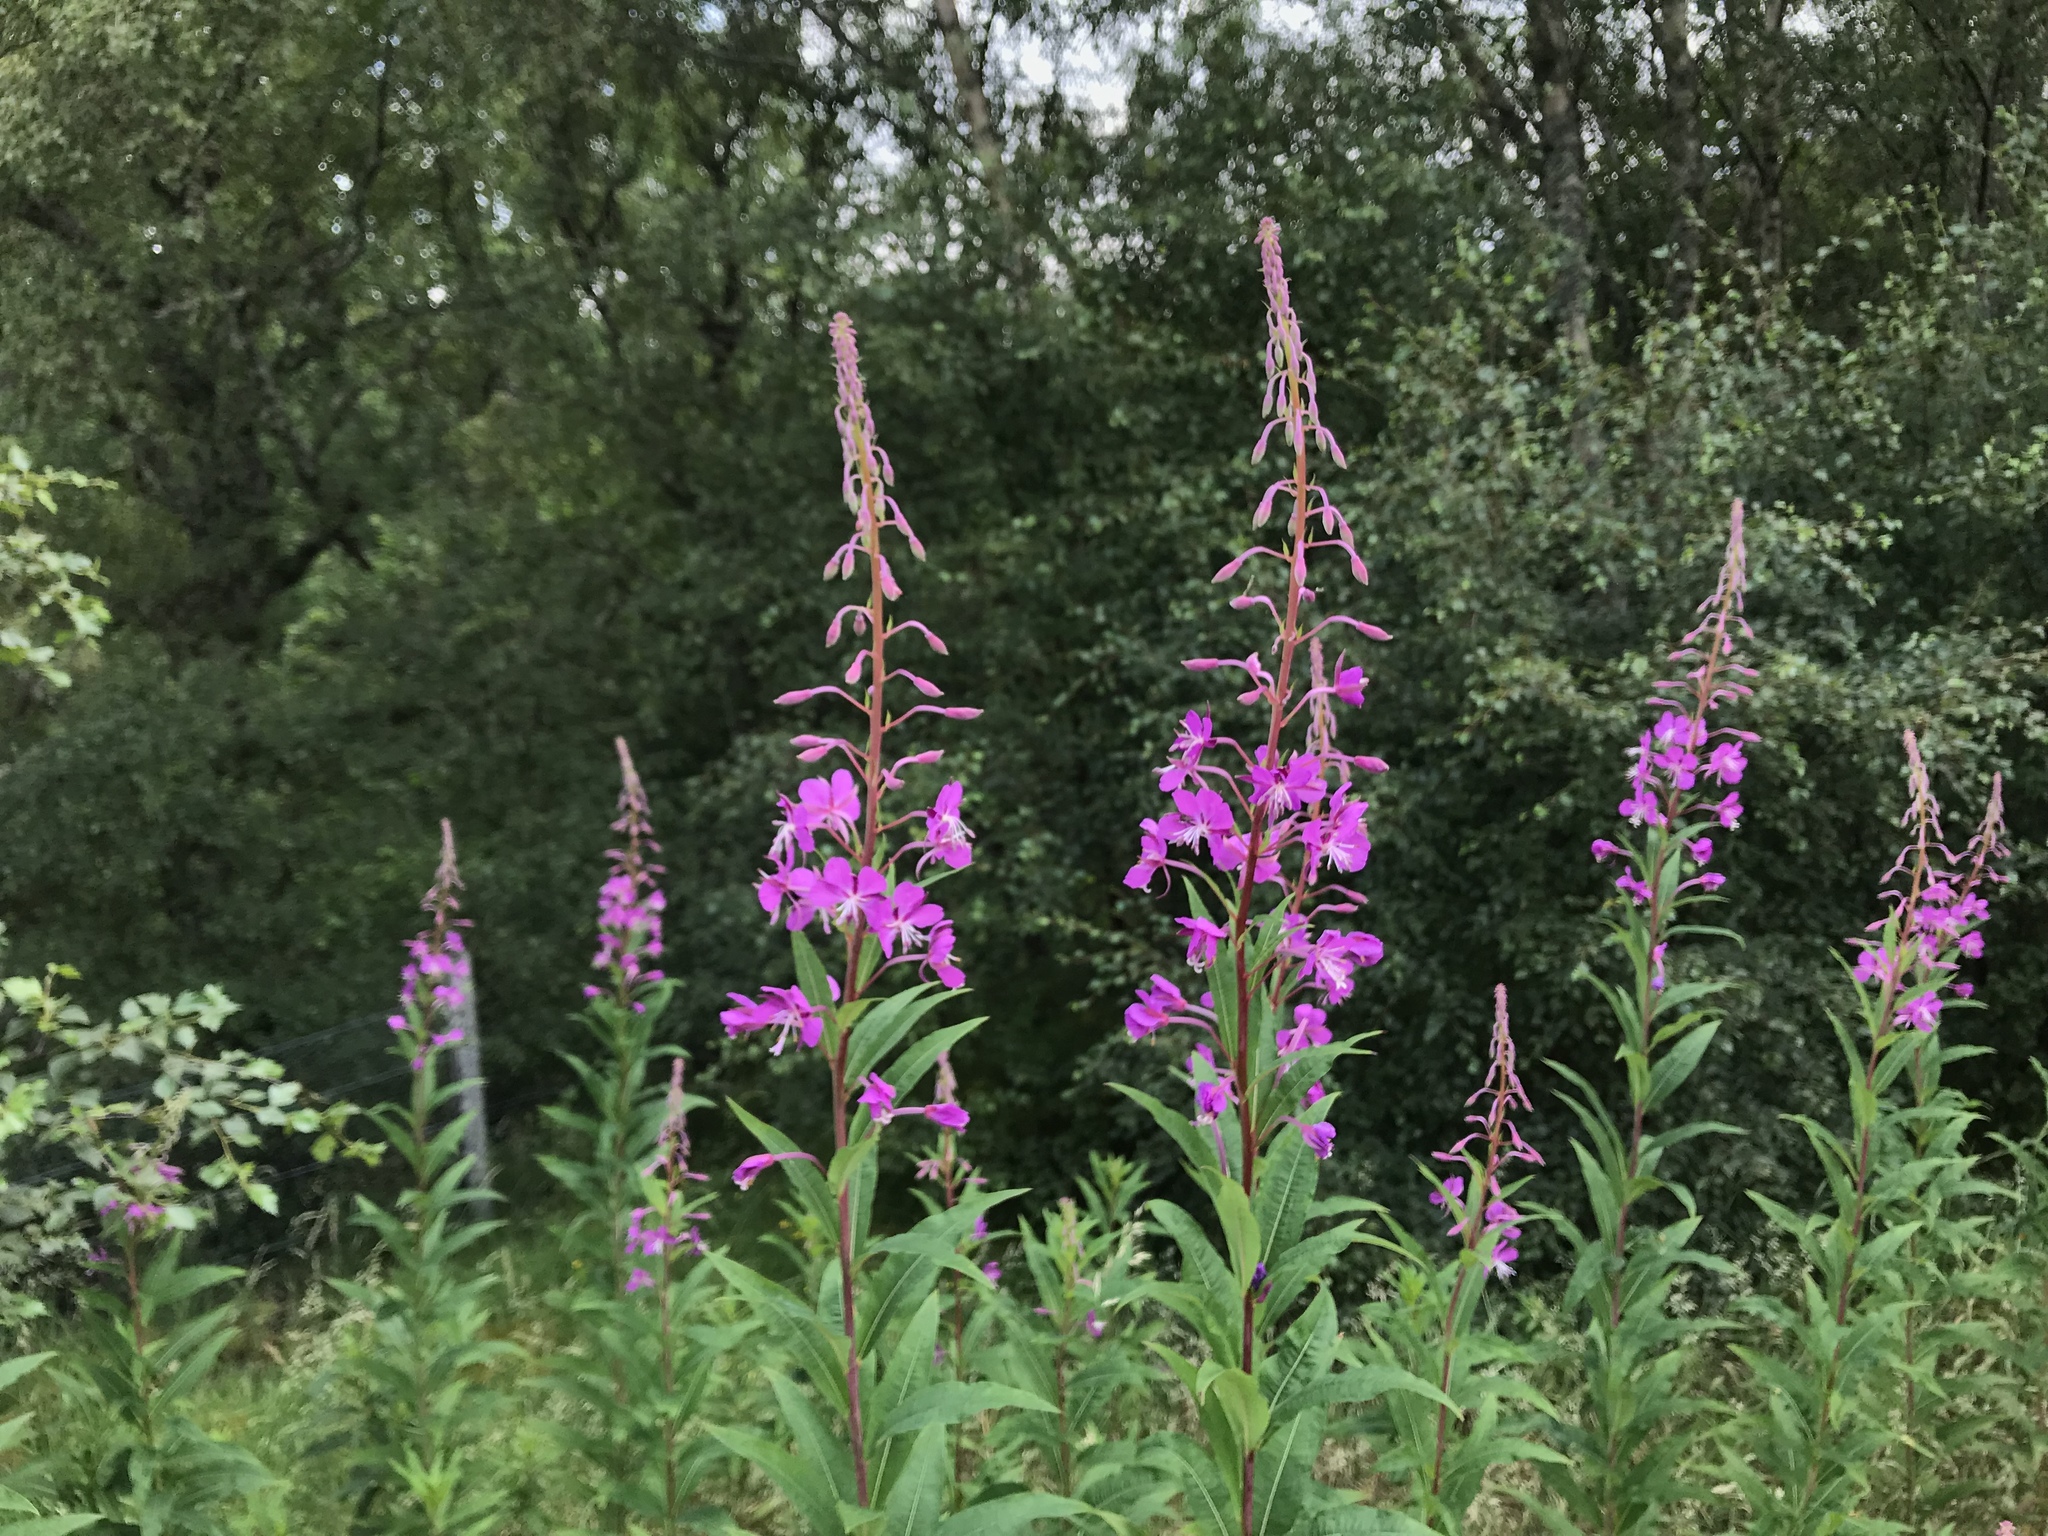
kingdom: Plantae
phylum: Tracheophyta
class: Magnoliopsida
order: Myrtales
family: Onagraceae
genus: Chamaenerion
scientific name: Chamaenerion angustifolium
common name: Fireweed
